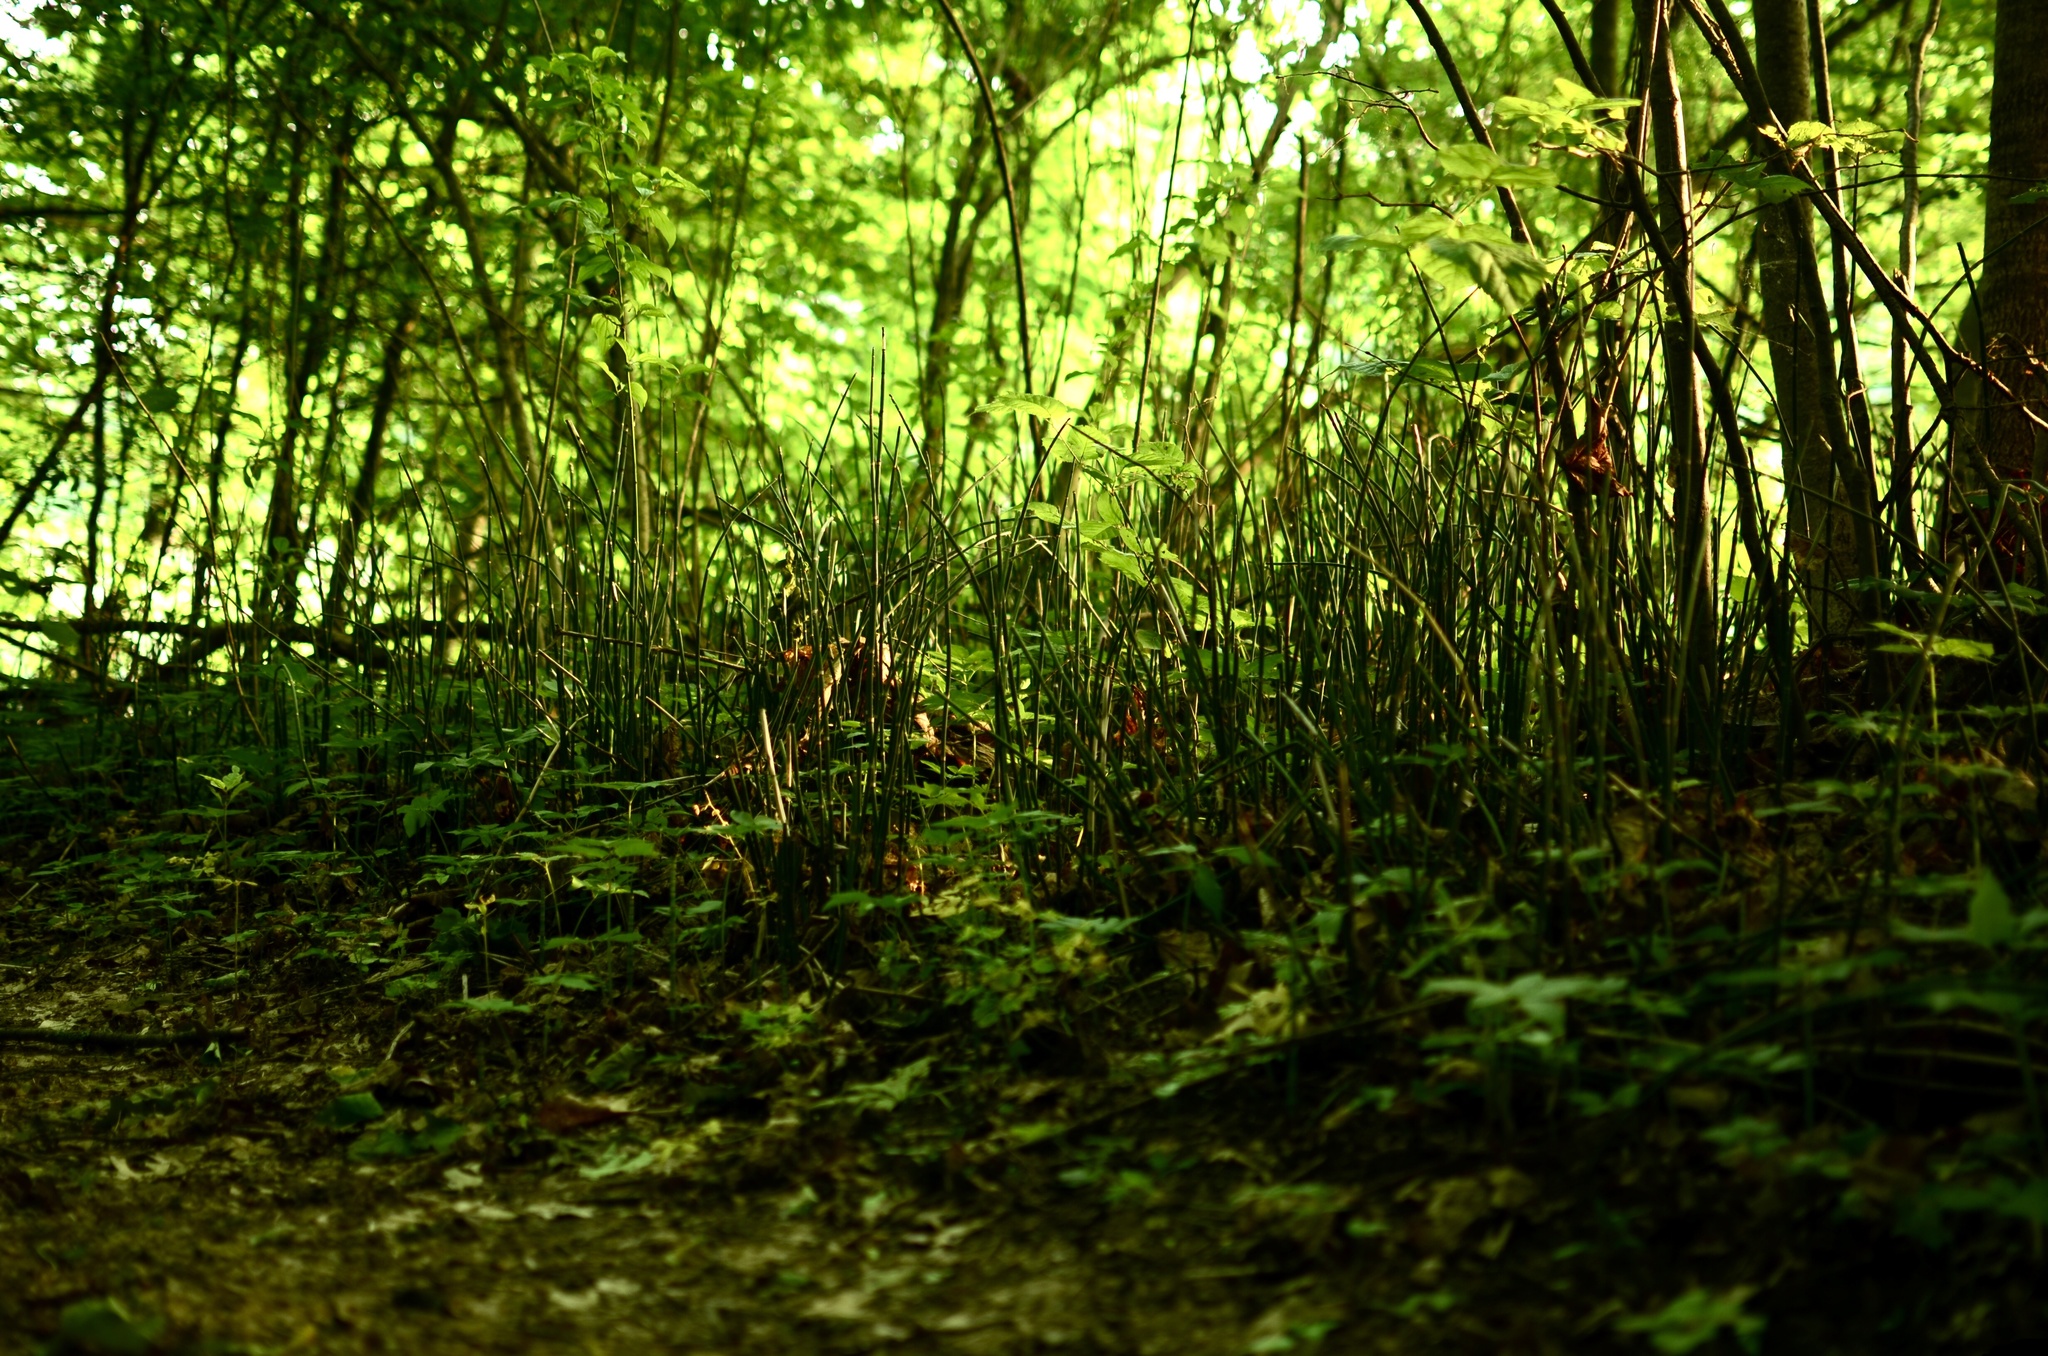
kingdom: Plantae
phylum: Tracheophyta
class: Polypodiopsida
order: Equisetales
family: Equisetaceae
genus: Equisetum
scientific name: Equisetum hyemale
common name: Rough horsetail
